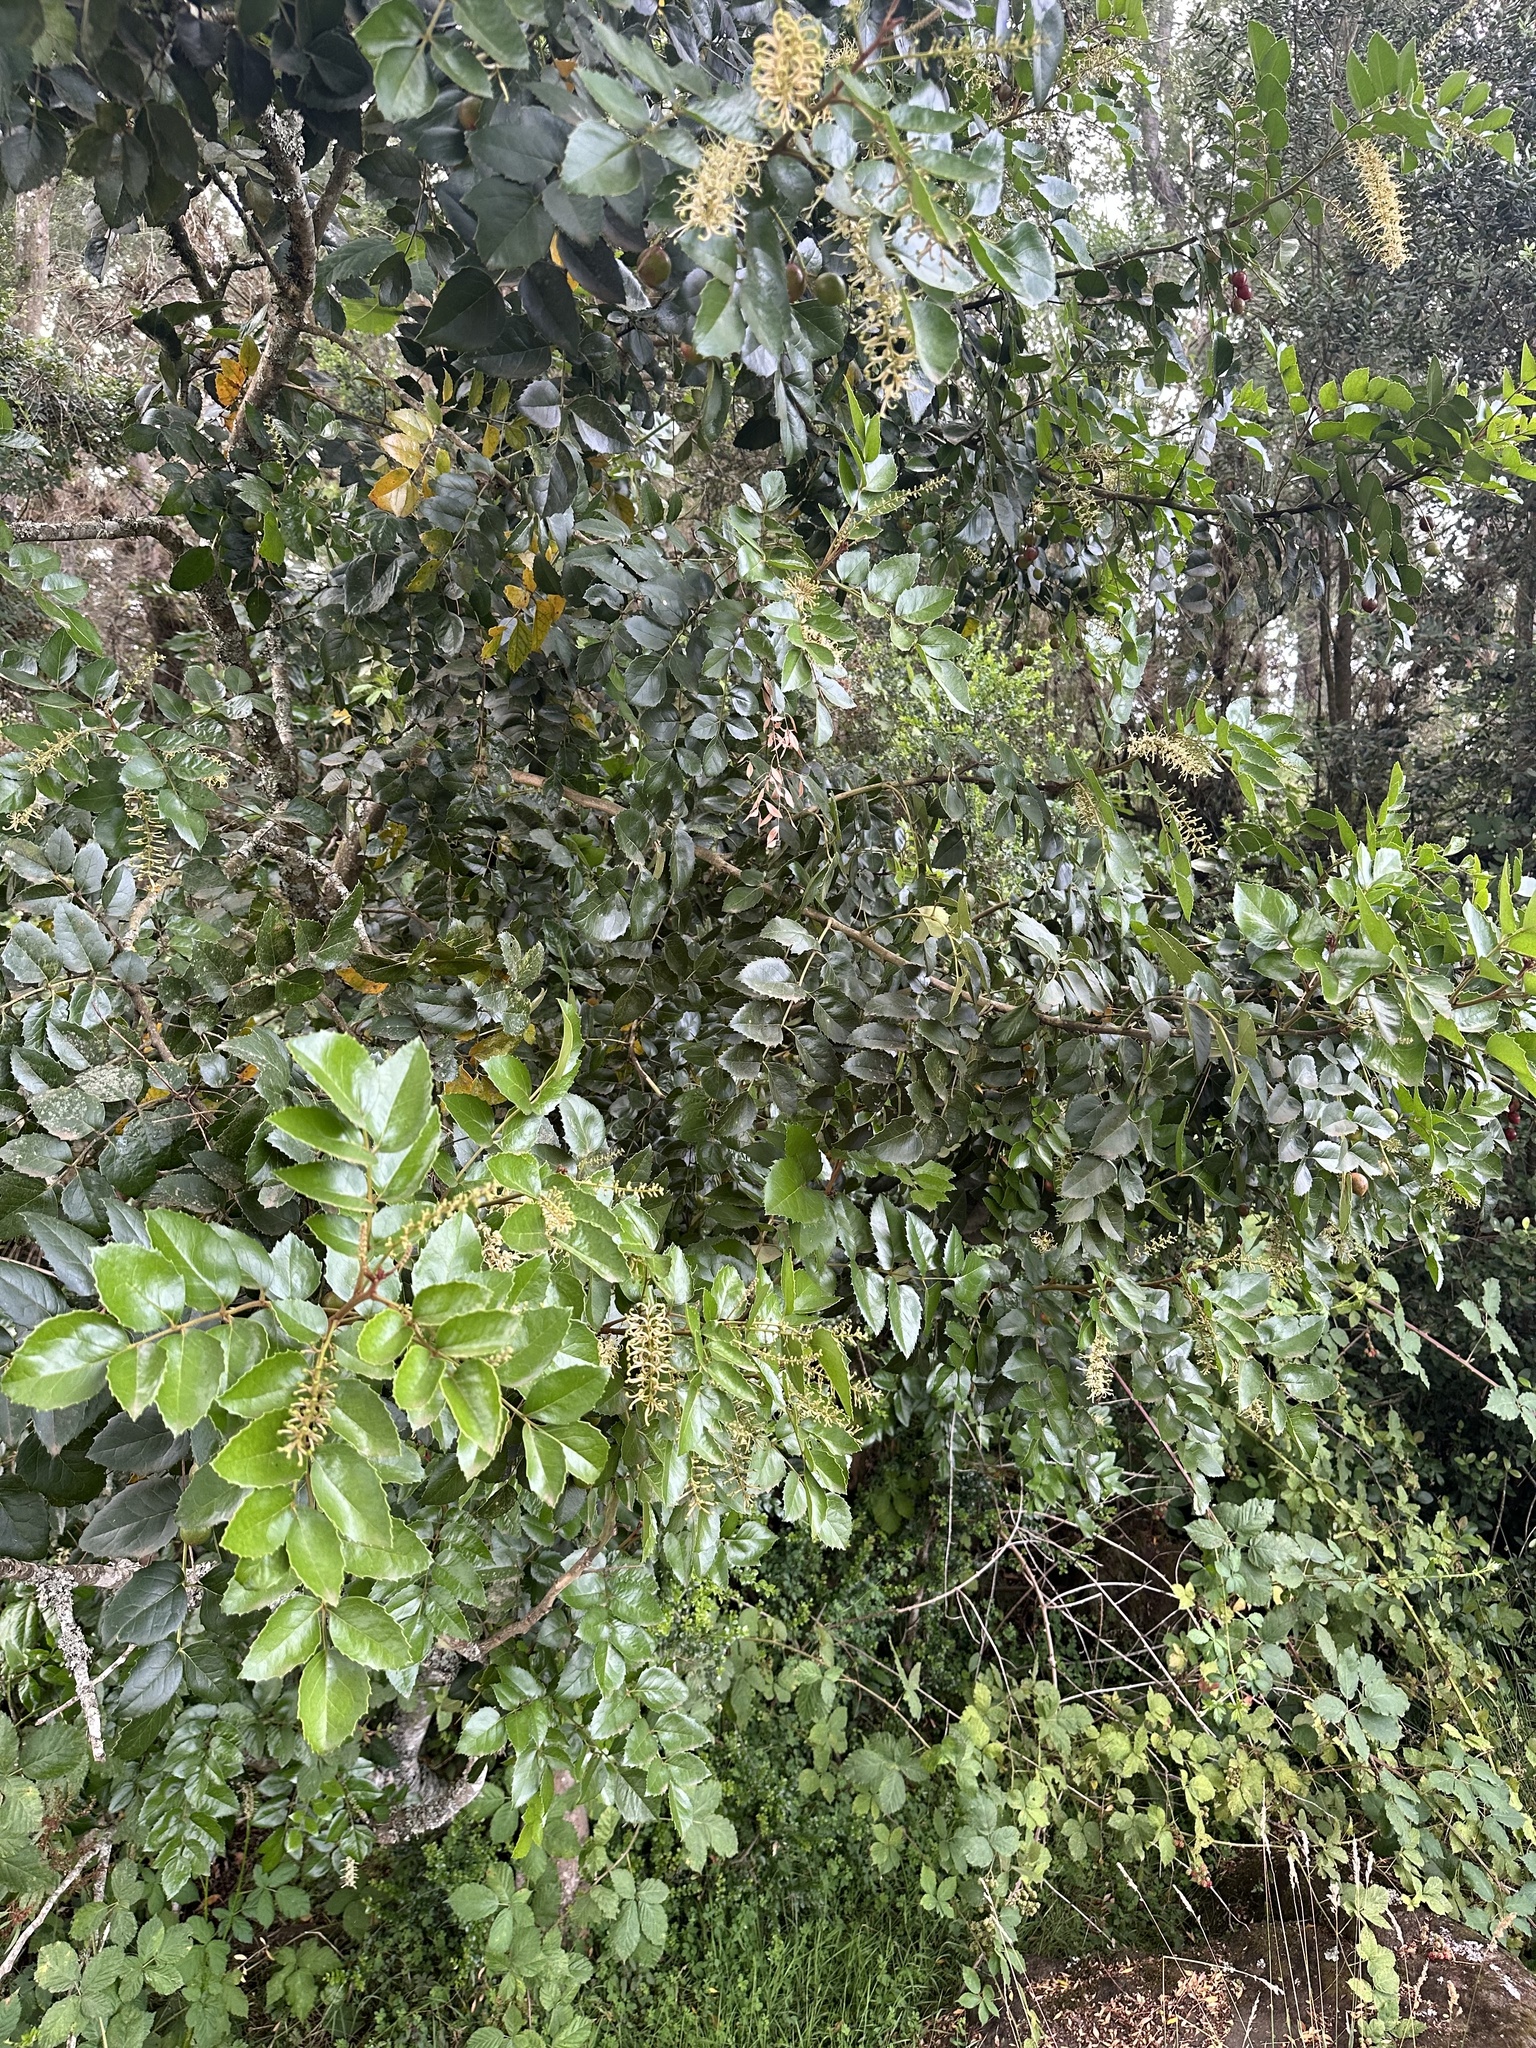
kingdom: Plantae
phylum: Tracheophyta
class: Magnoliopsida
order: Proteales
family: Proteaceae
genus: Gevuina
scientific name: Gevuina avellana
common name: Chilean hazel
